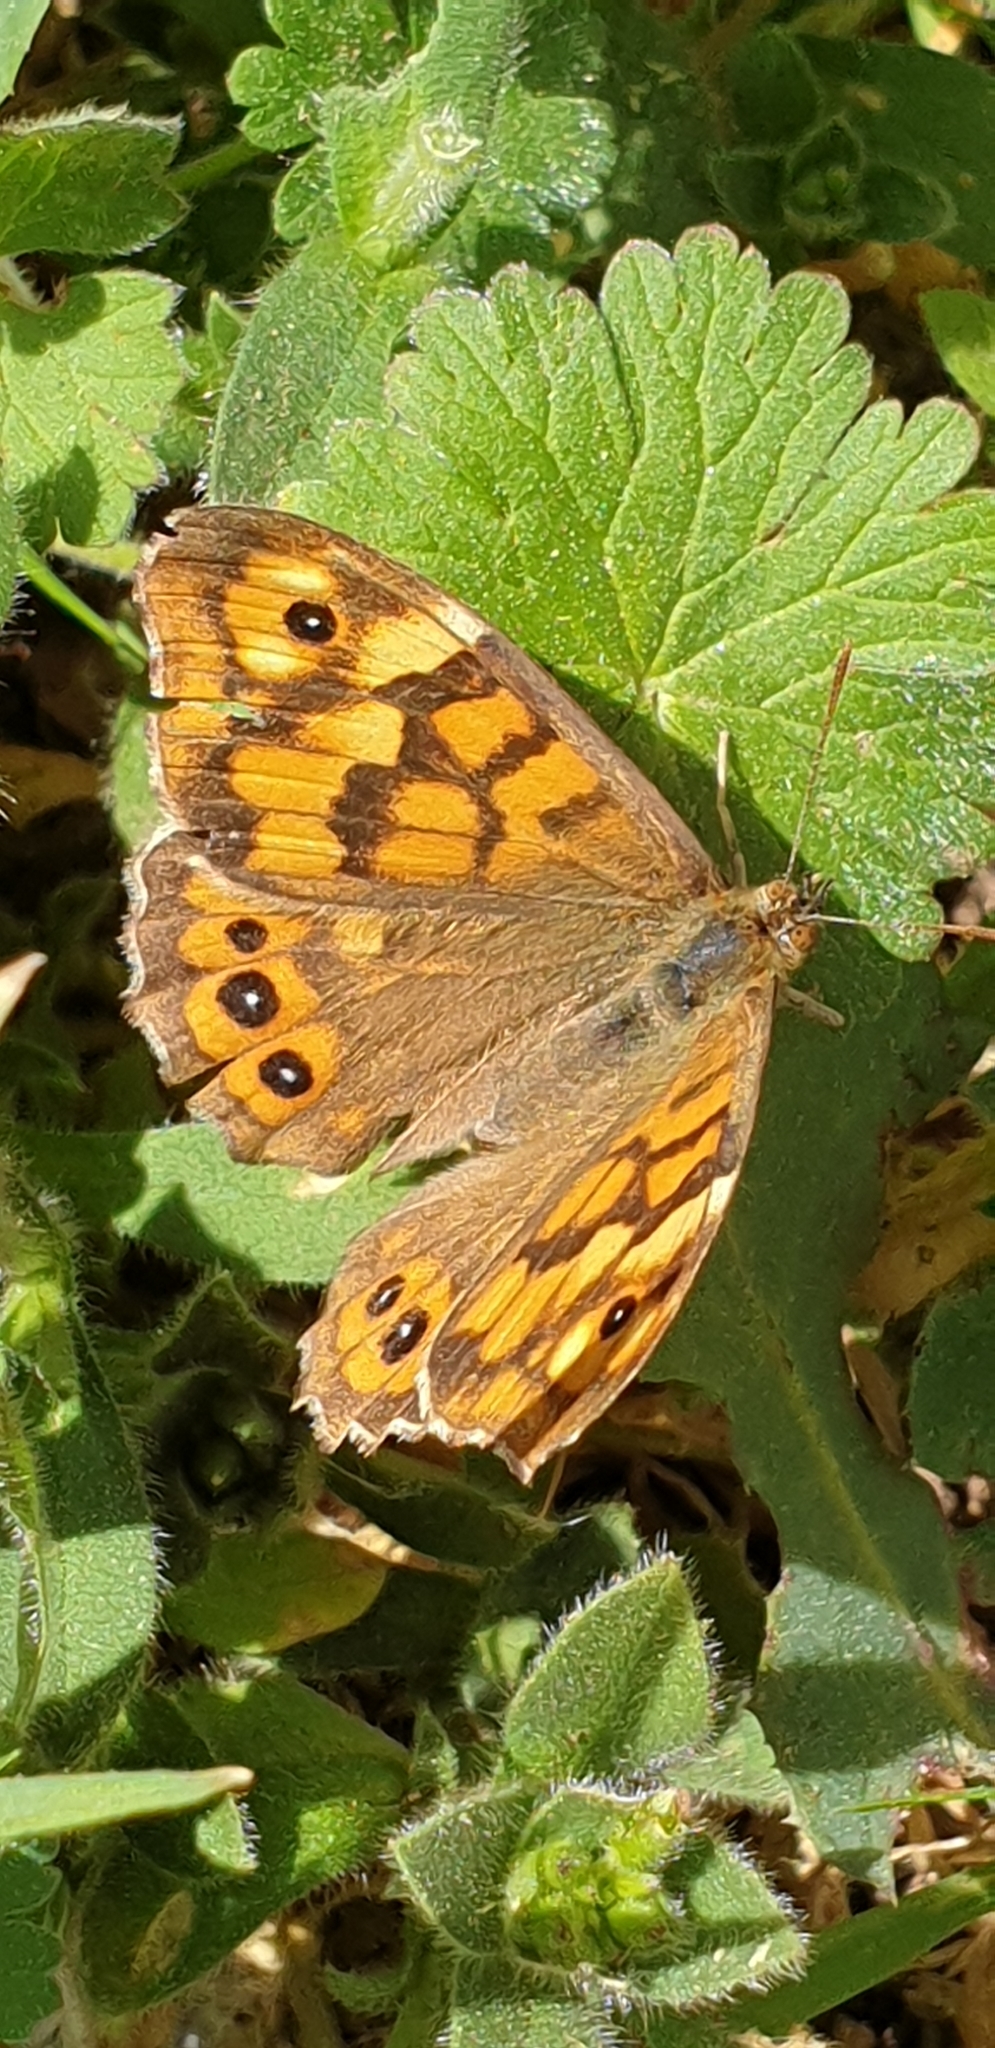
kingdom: Animalia
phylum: Arthropoda
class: Insecta
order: Lepidoptera
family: Nymphalidae
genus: Pararge
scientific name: Pararge aegeria
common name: Speckled wood
